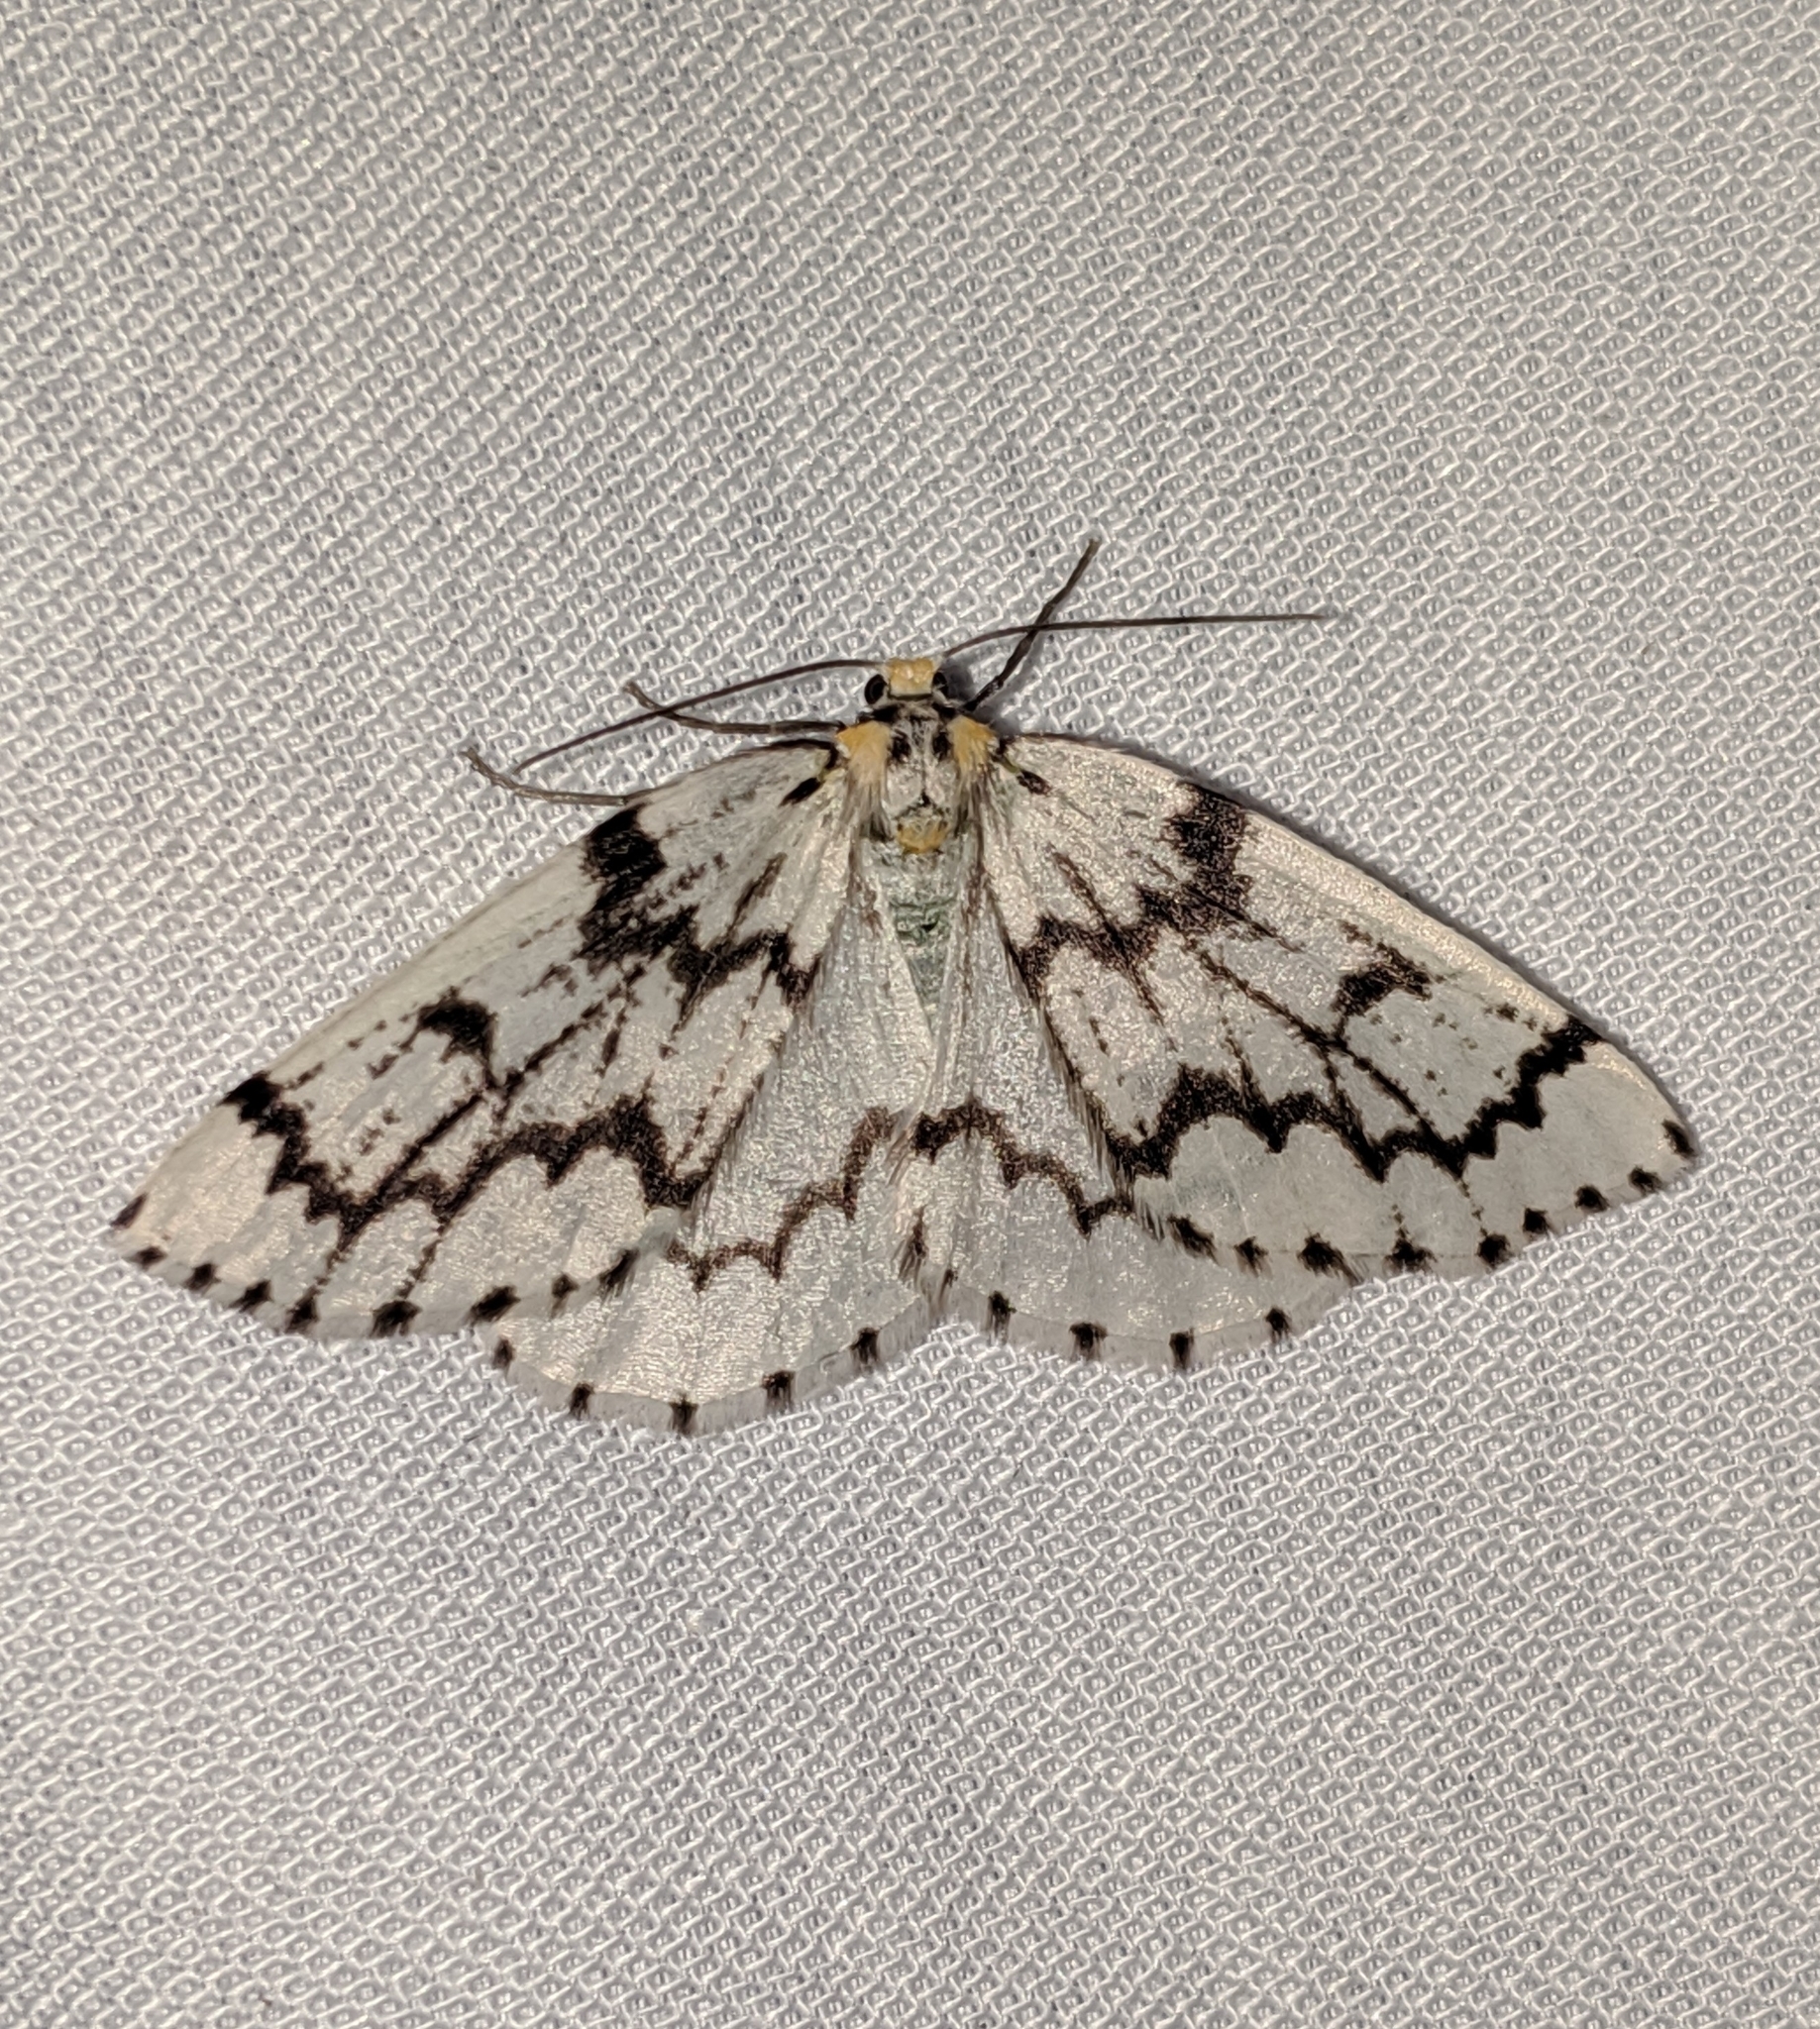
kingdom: Animalia
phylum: Arthropoda
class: Insecta
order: Lepidoptera
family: Geometridae
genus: Nepytia
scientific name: Nepytia phantasmaria
